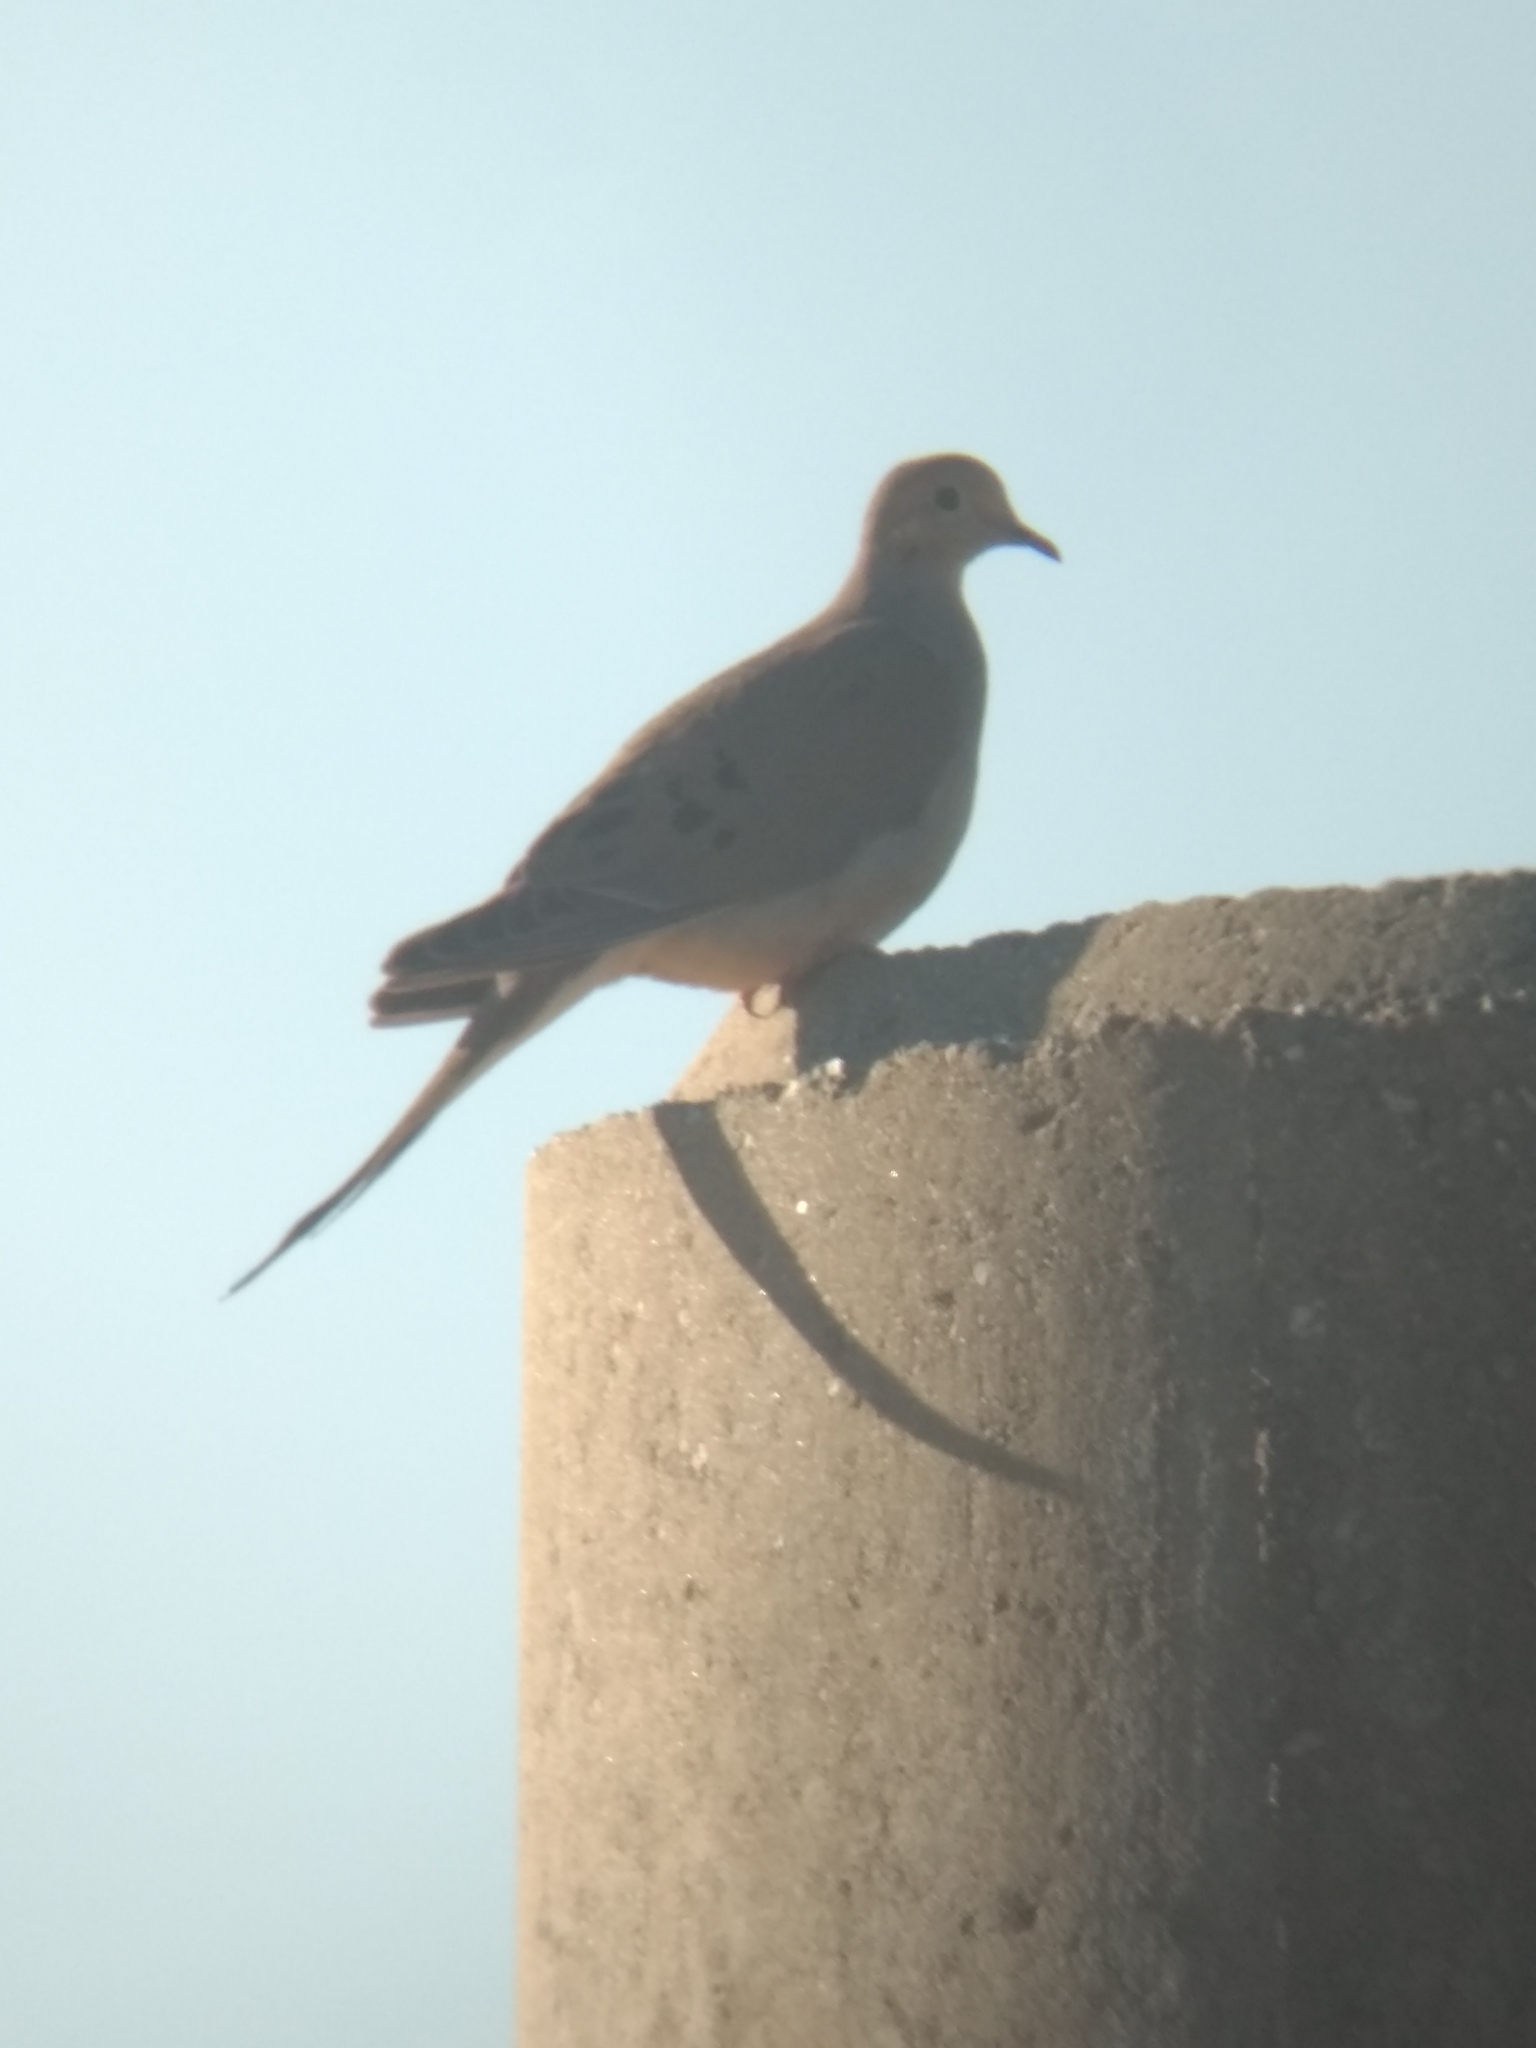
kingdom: Animalia
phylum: Chordata
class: Aves
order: Columbiformes
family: Columbidae
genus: Zenaida
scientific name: Zenaida macroura
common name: Mourning dove
